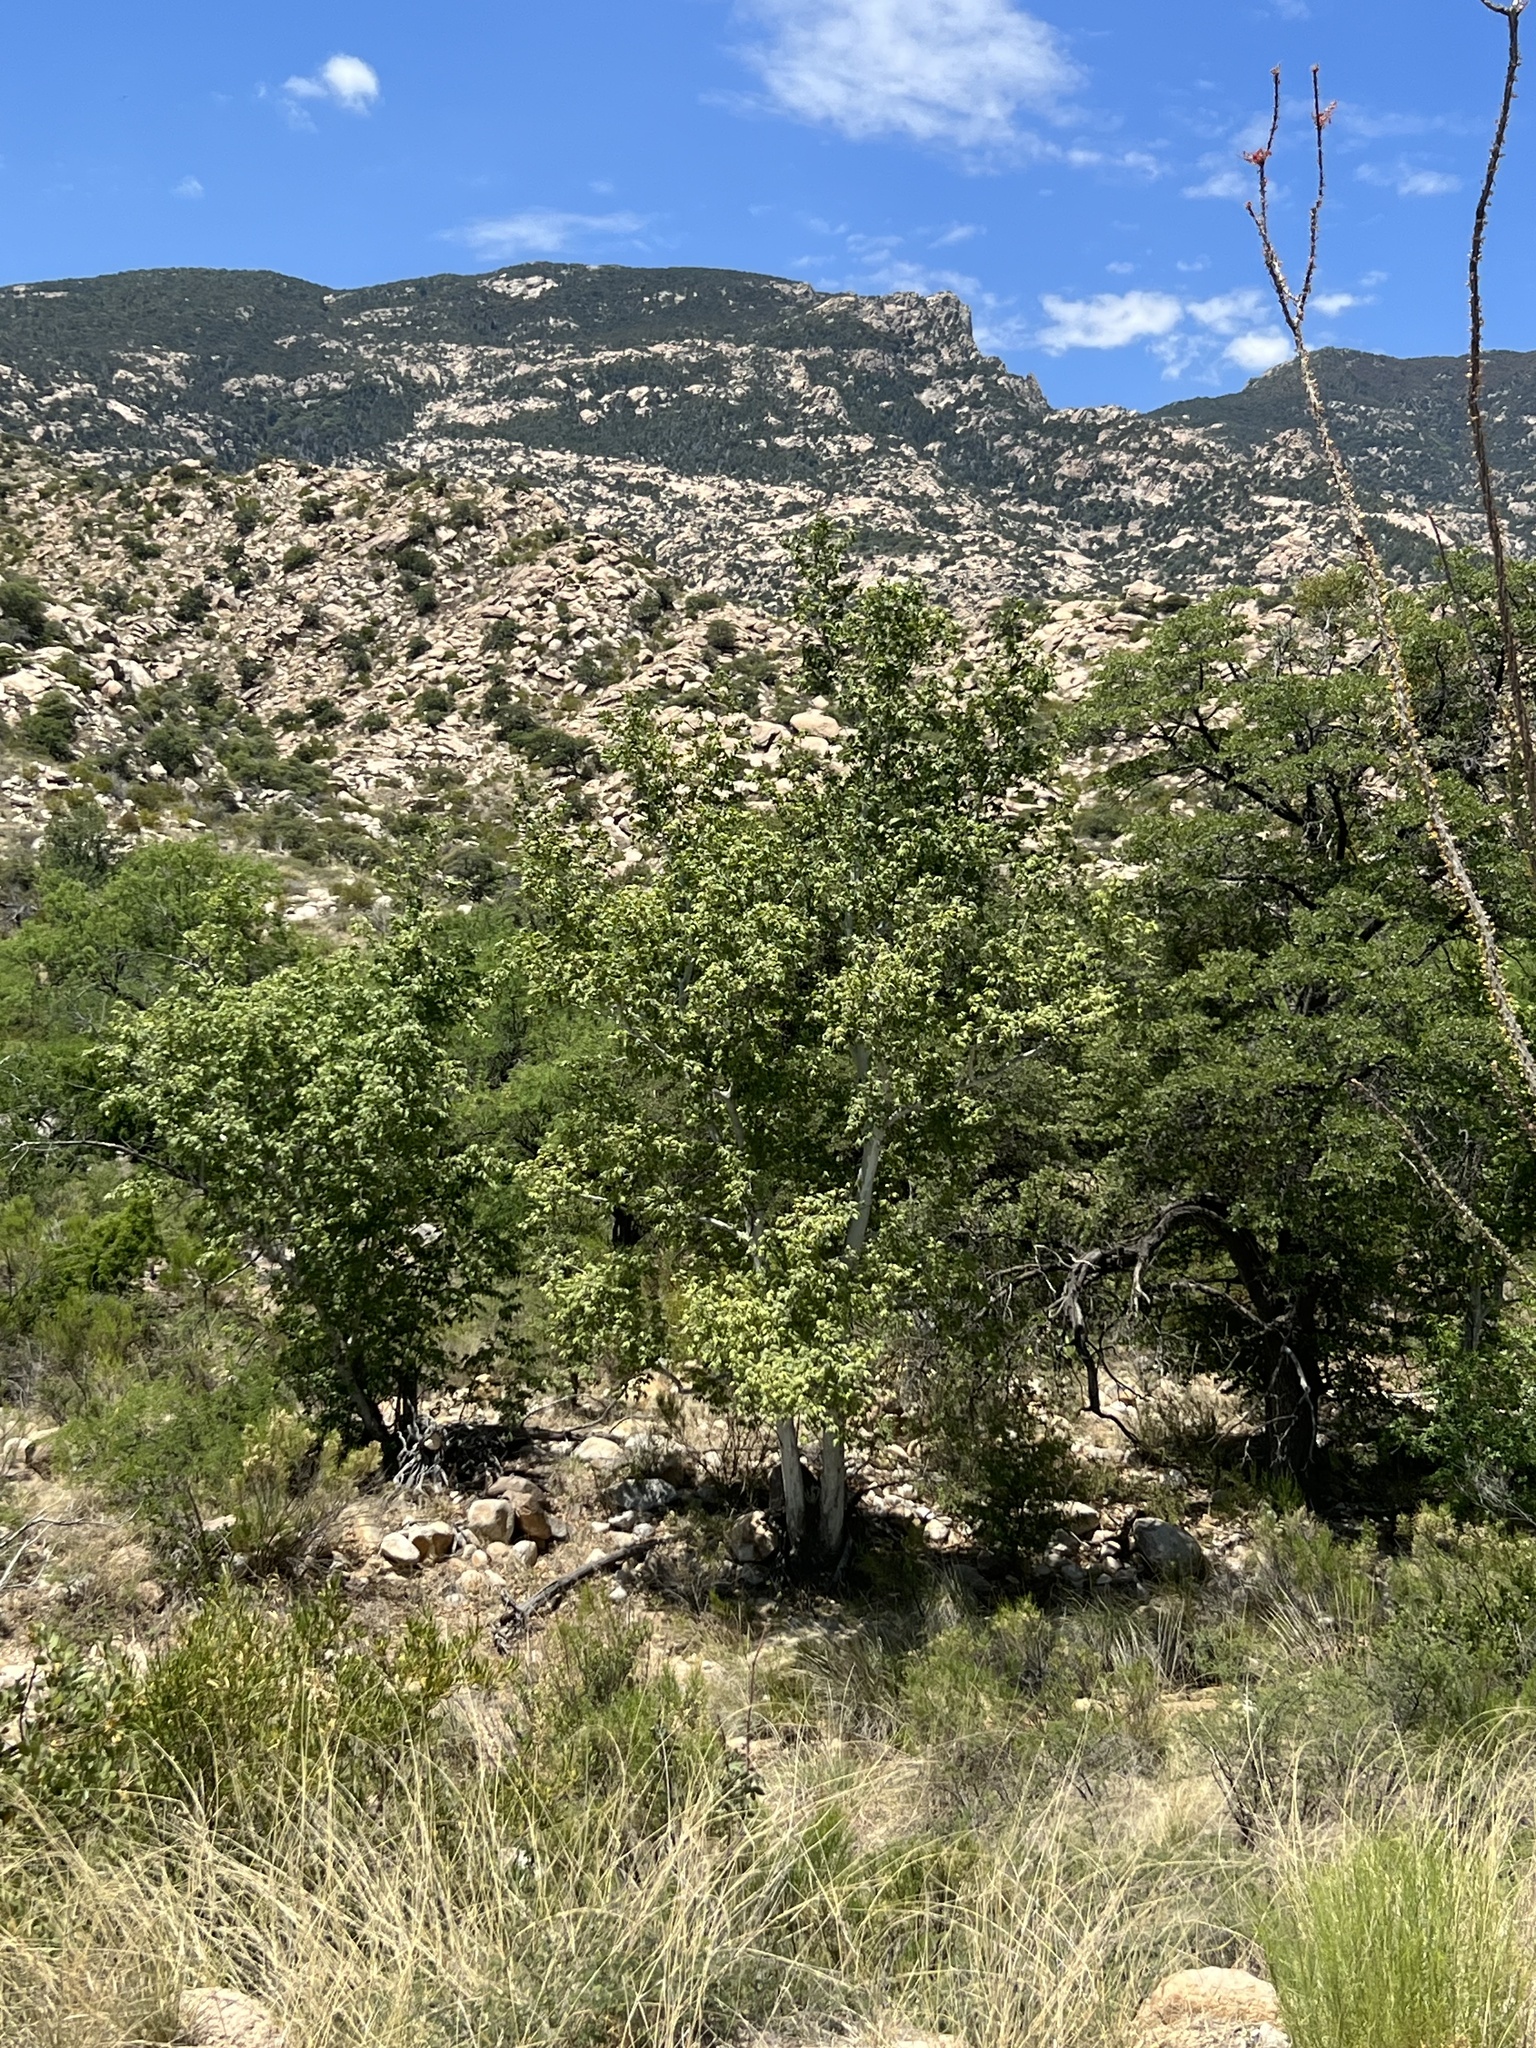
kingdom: Plantae
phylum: Tracheophyta
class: Magnoliopsida
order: Proteales
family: Platanaceae
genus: Platanus
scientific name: Platanus wrightii
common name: Arizona sycamore
